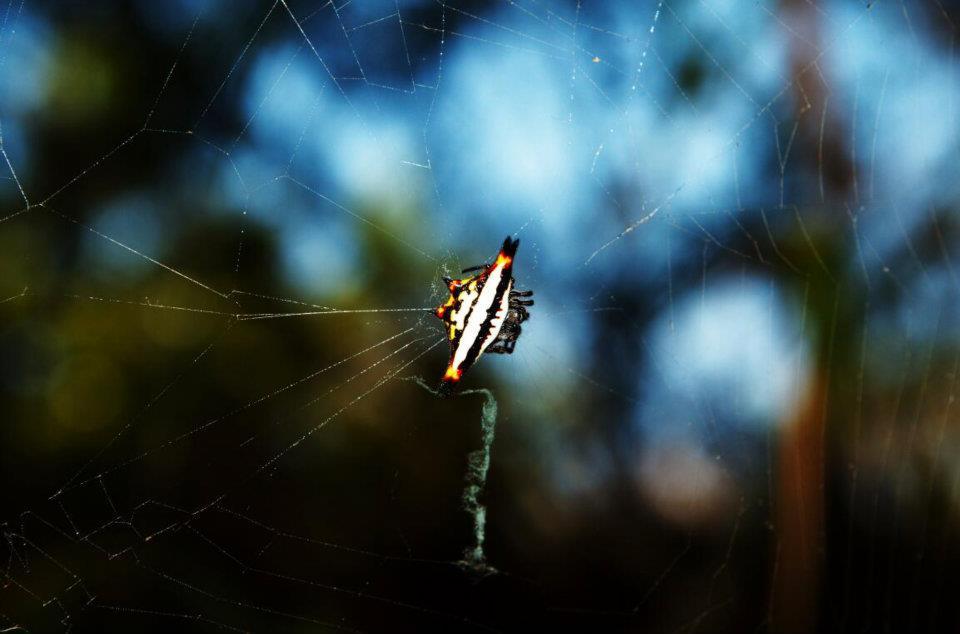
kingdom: Animalia
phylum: Arthropoda
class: Arachnida
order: Araneae
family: Araneidae
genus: Gasteracantha
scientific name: Gasteracantha geminata
